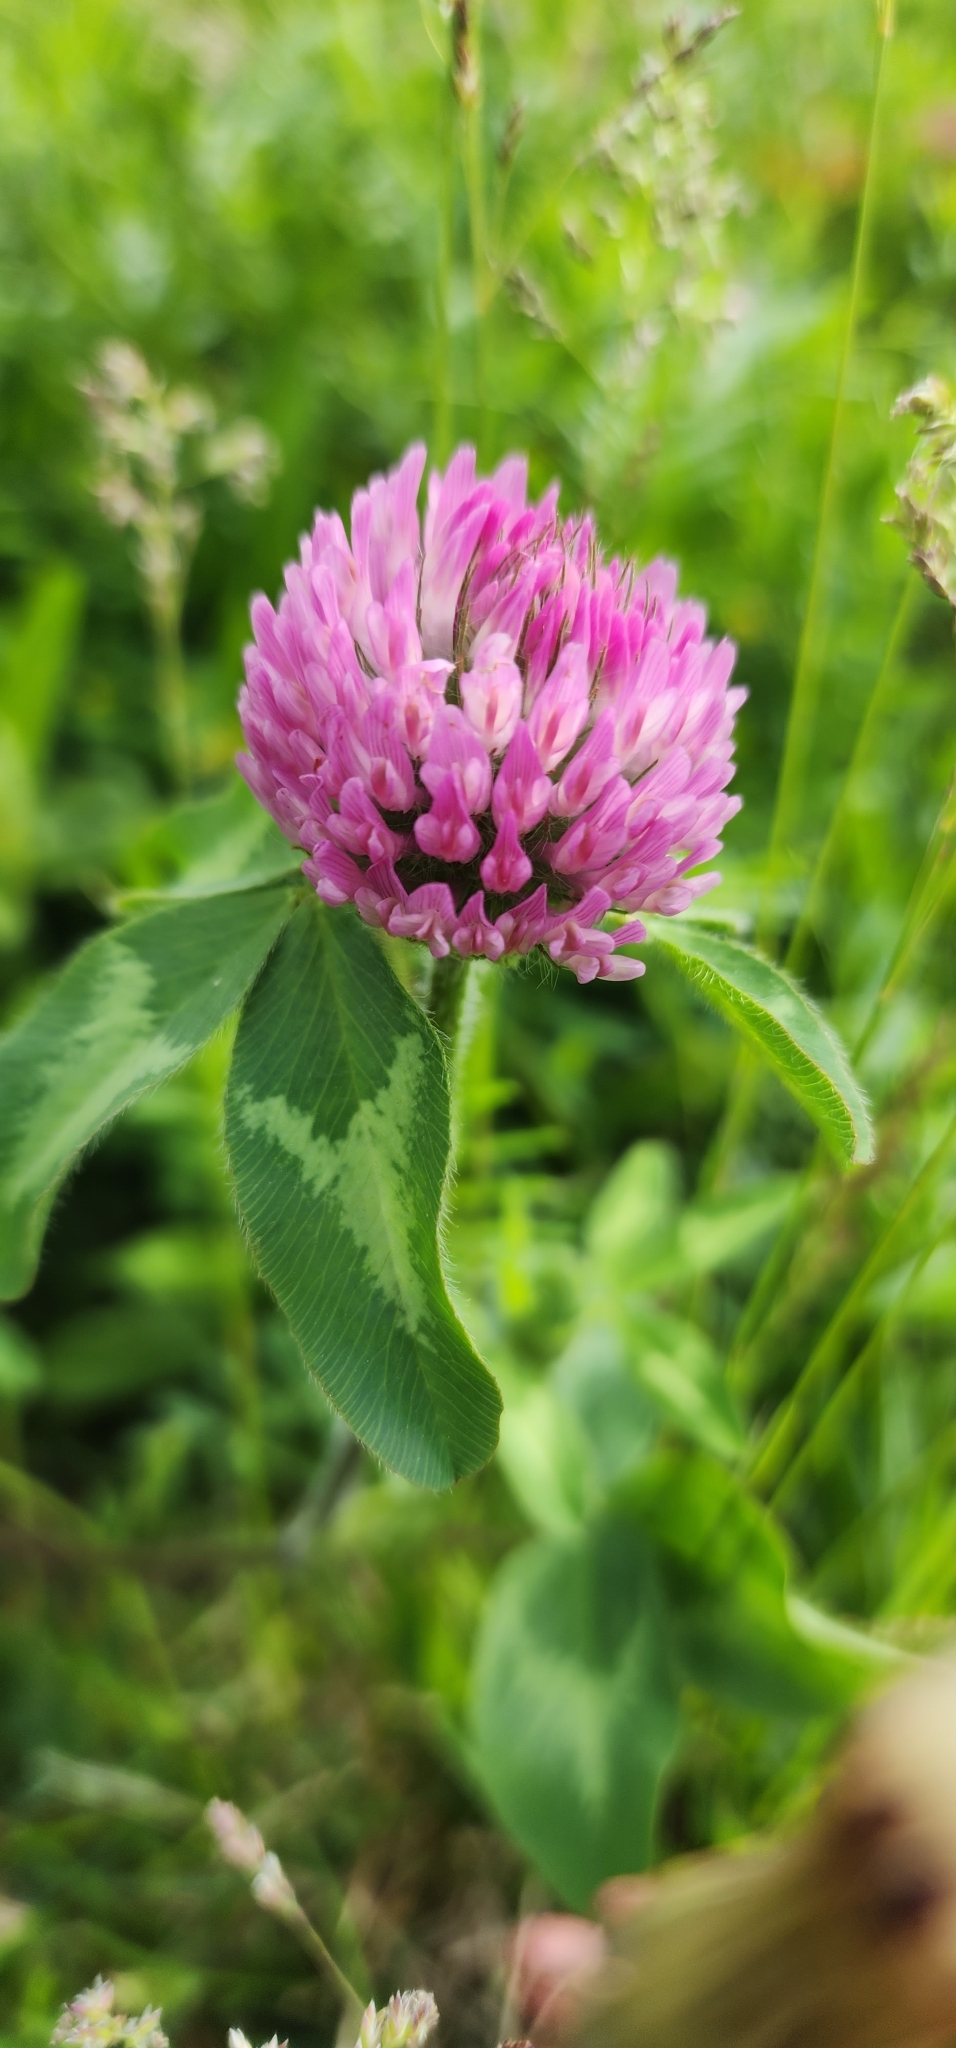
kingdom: Plantae
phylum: Tracheophyta
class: Magnoliopsida
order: Fabales
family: Fabaceae
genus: Trifolium
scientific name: Trifolium pratense
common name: Red clover
